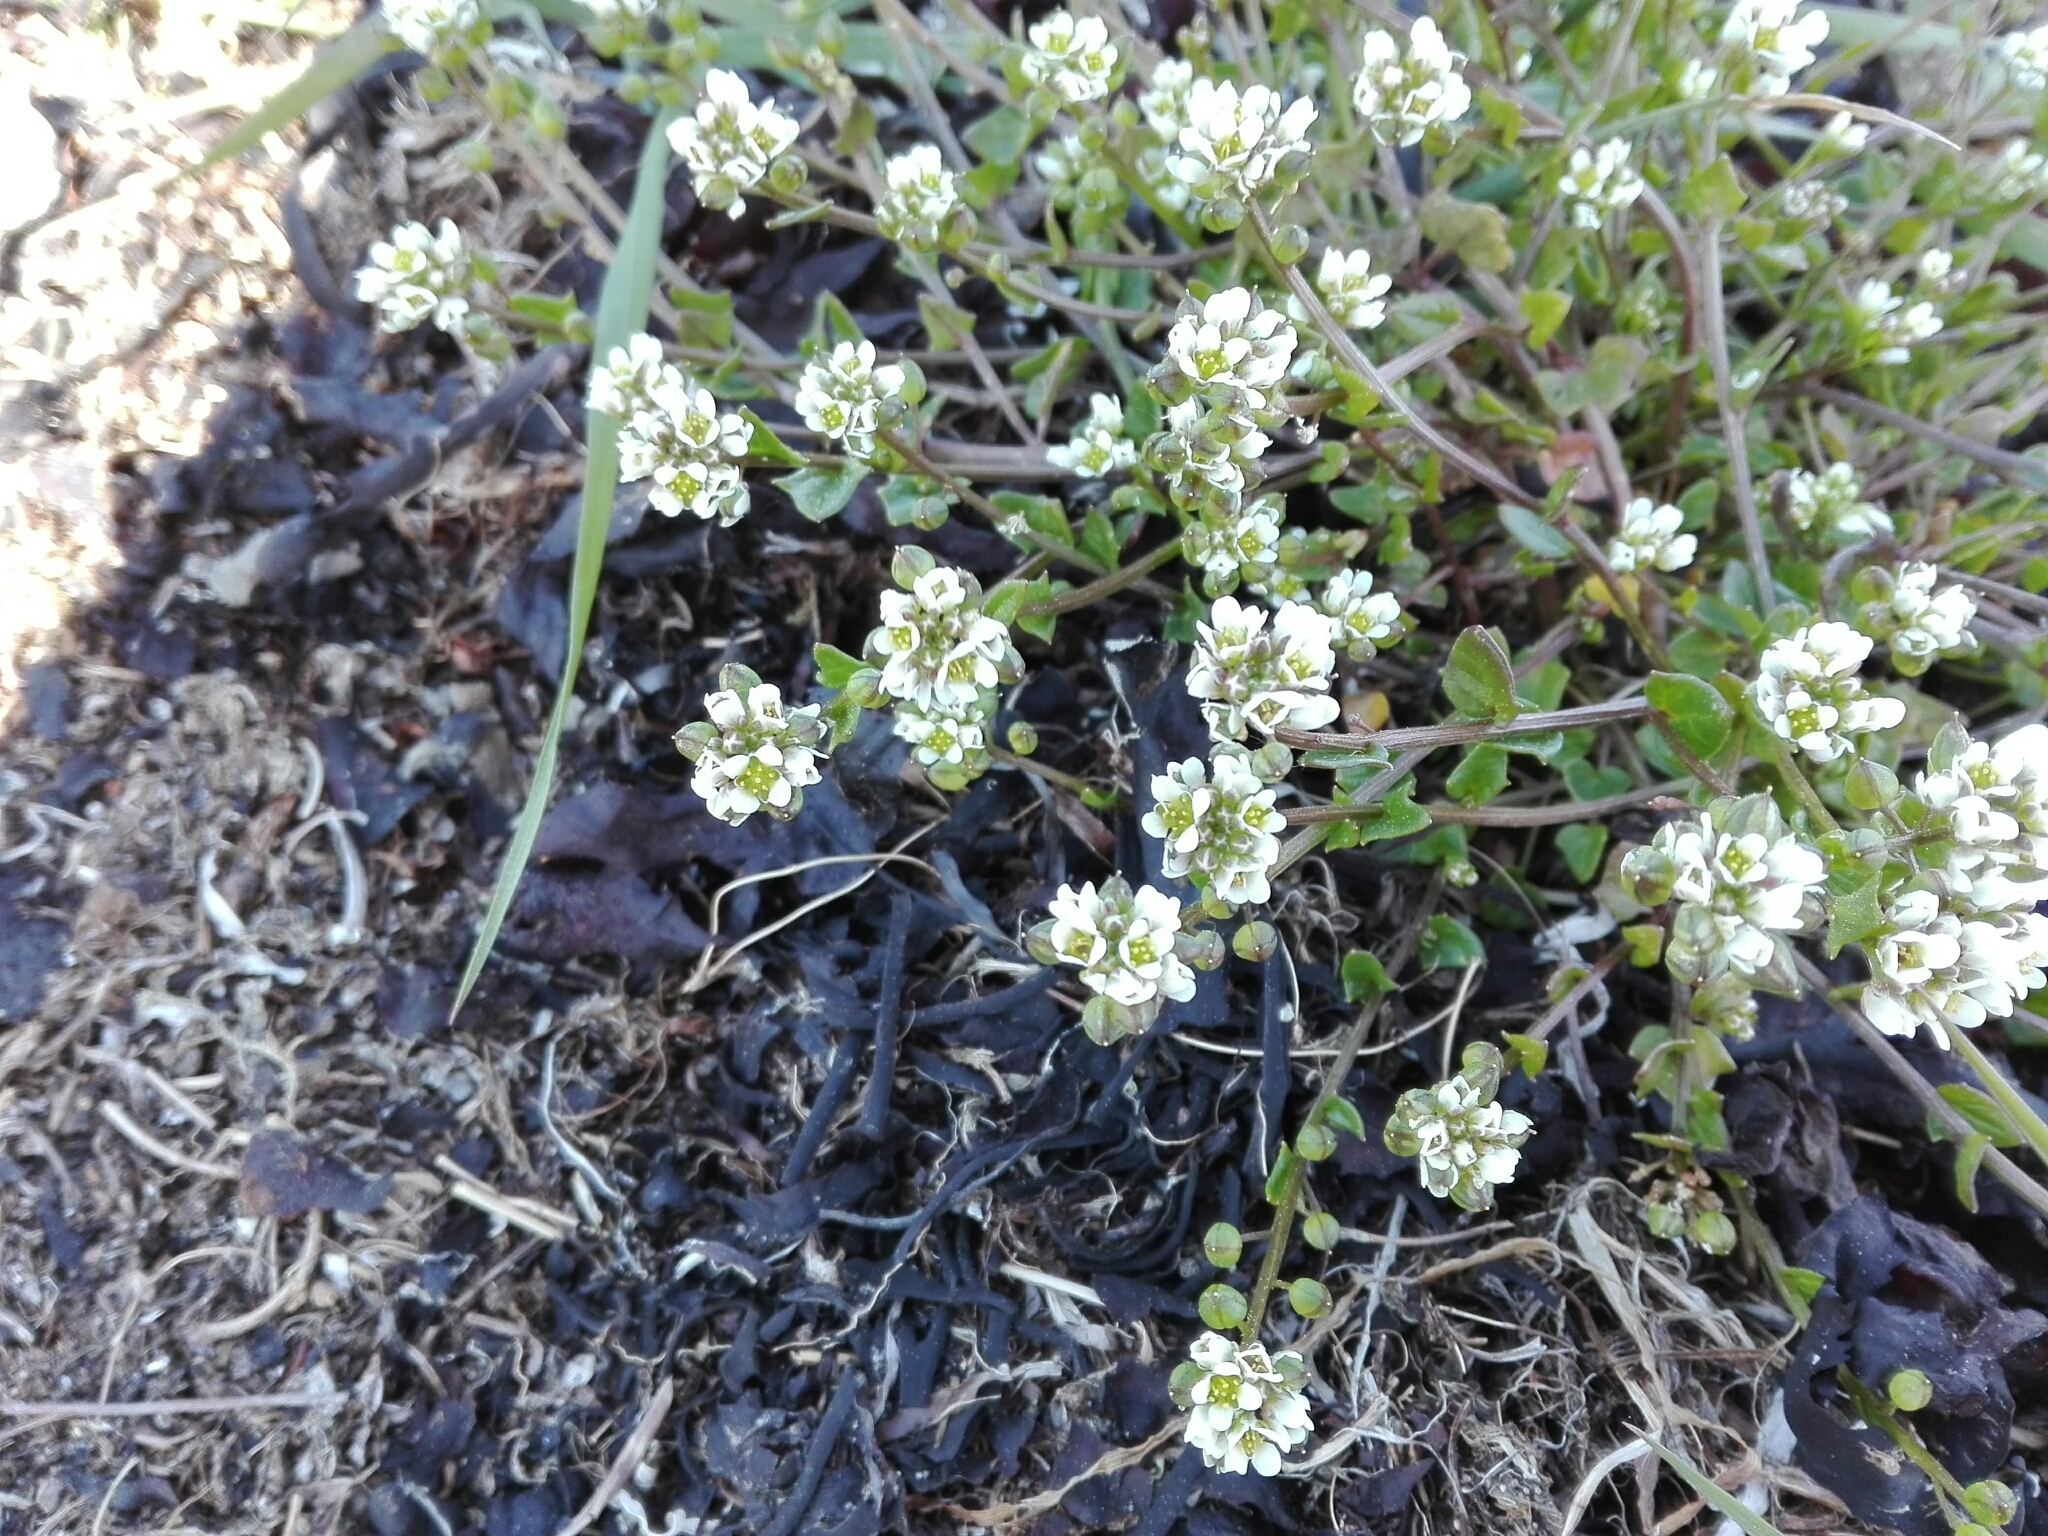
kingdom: Plantae
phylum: Tracheophyta
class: Magnoliopsida
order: Brassicales
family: Brassicaceae
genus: Cochlearia
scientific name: Cochlearia officinalis
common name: Scurvy-grass
